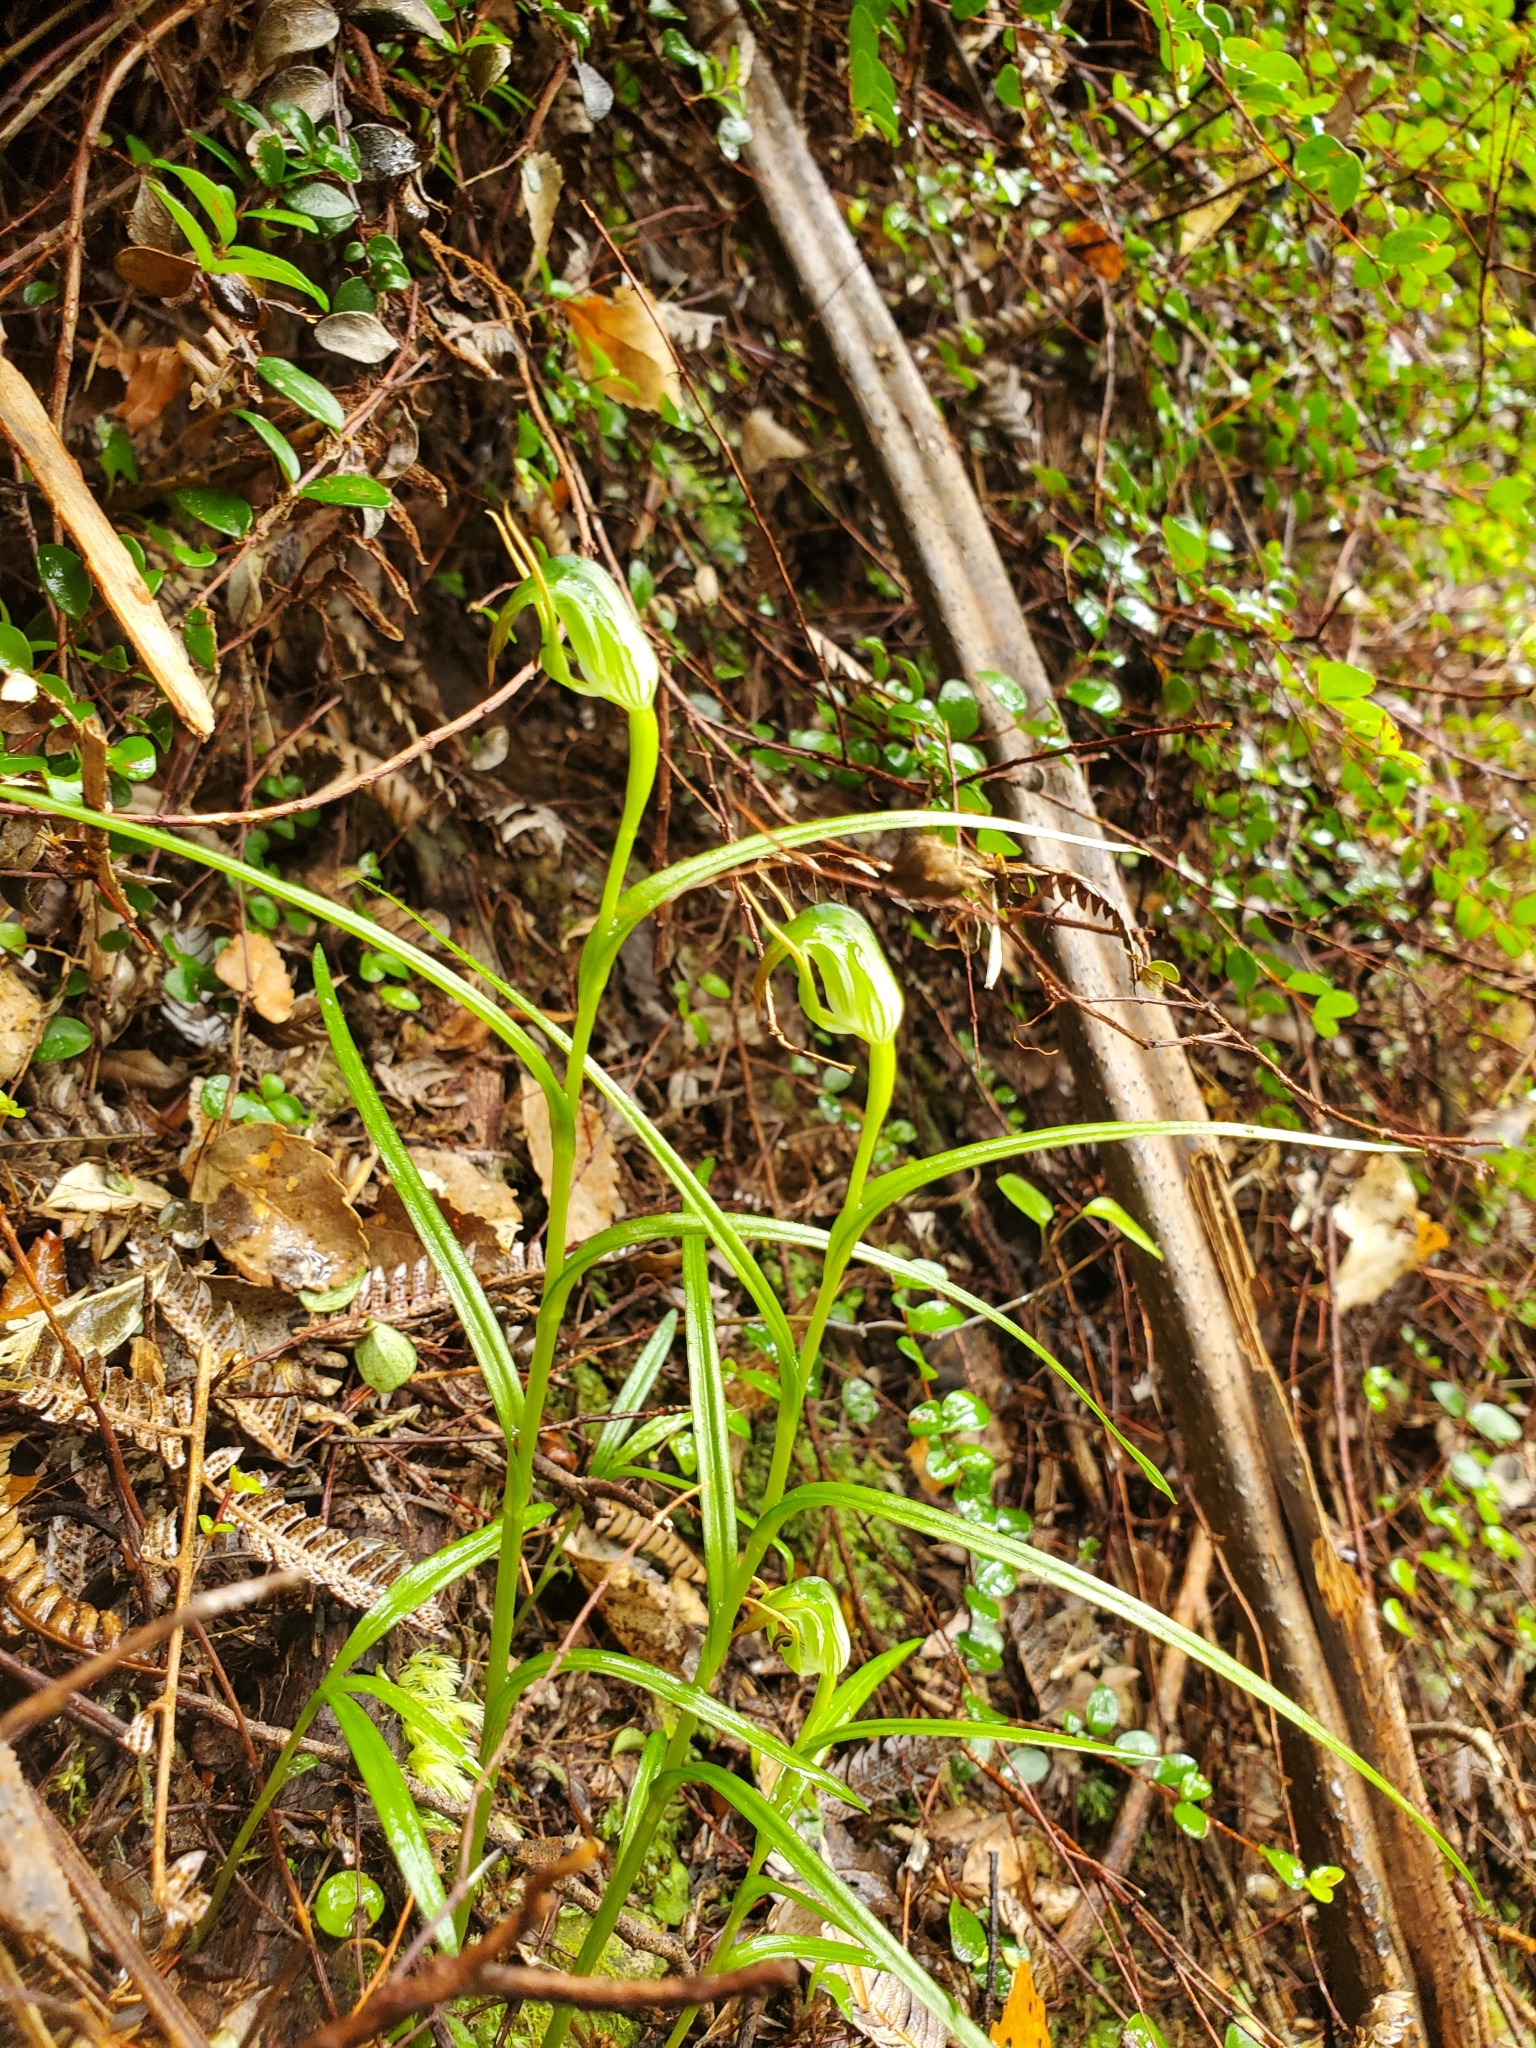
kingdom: Plantae
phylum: Tracheophyta
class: Liliopsida
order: Asparagales
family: Orchidaceae
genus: Pterostylis
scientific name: Pterostylis graminea
